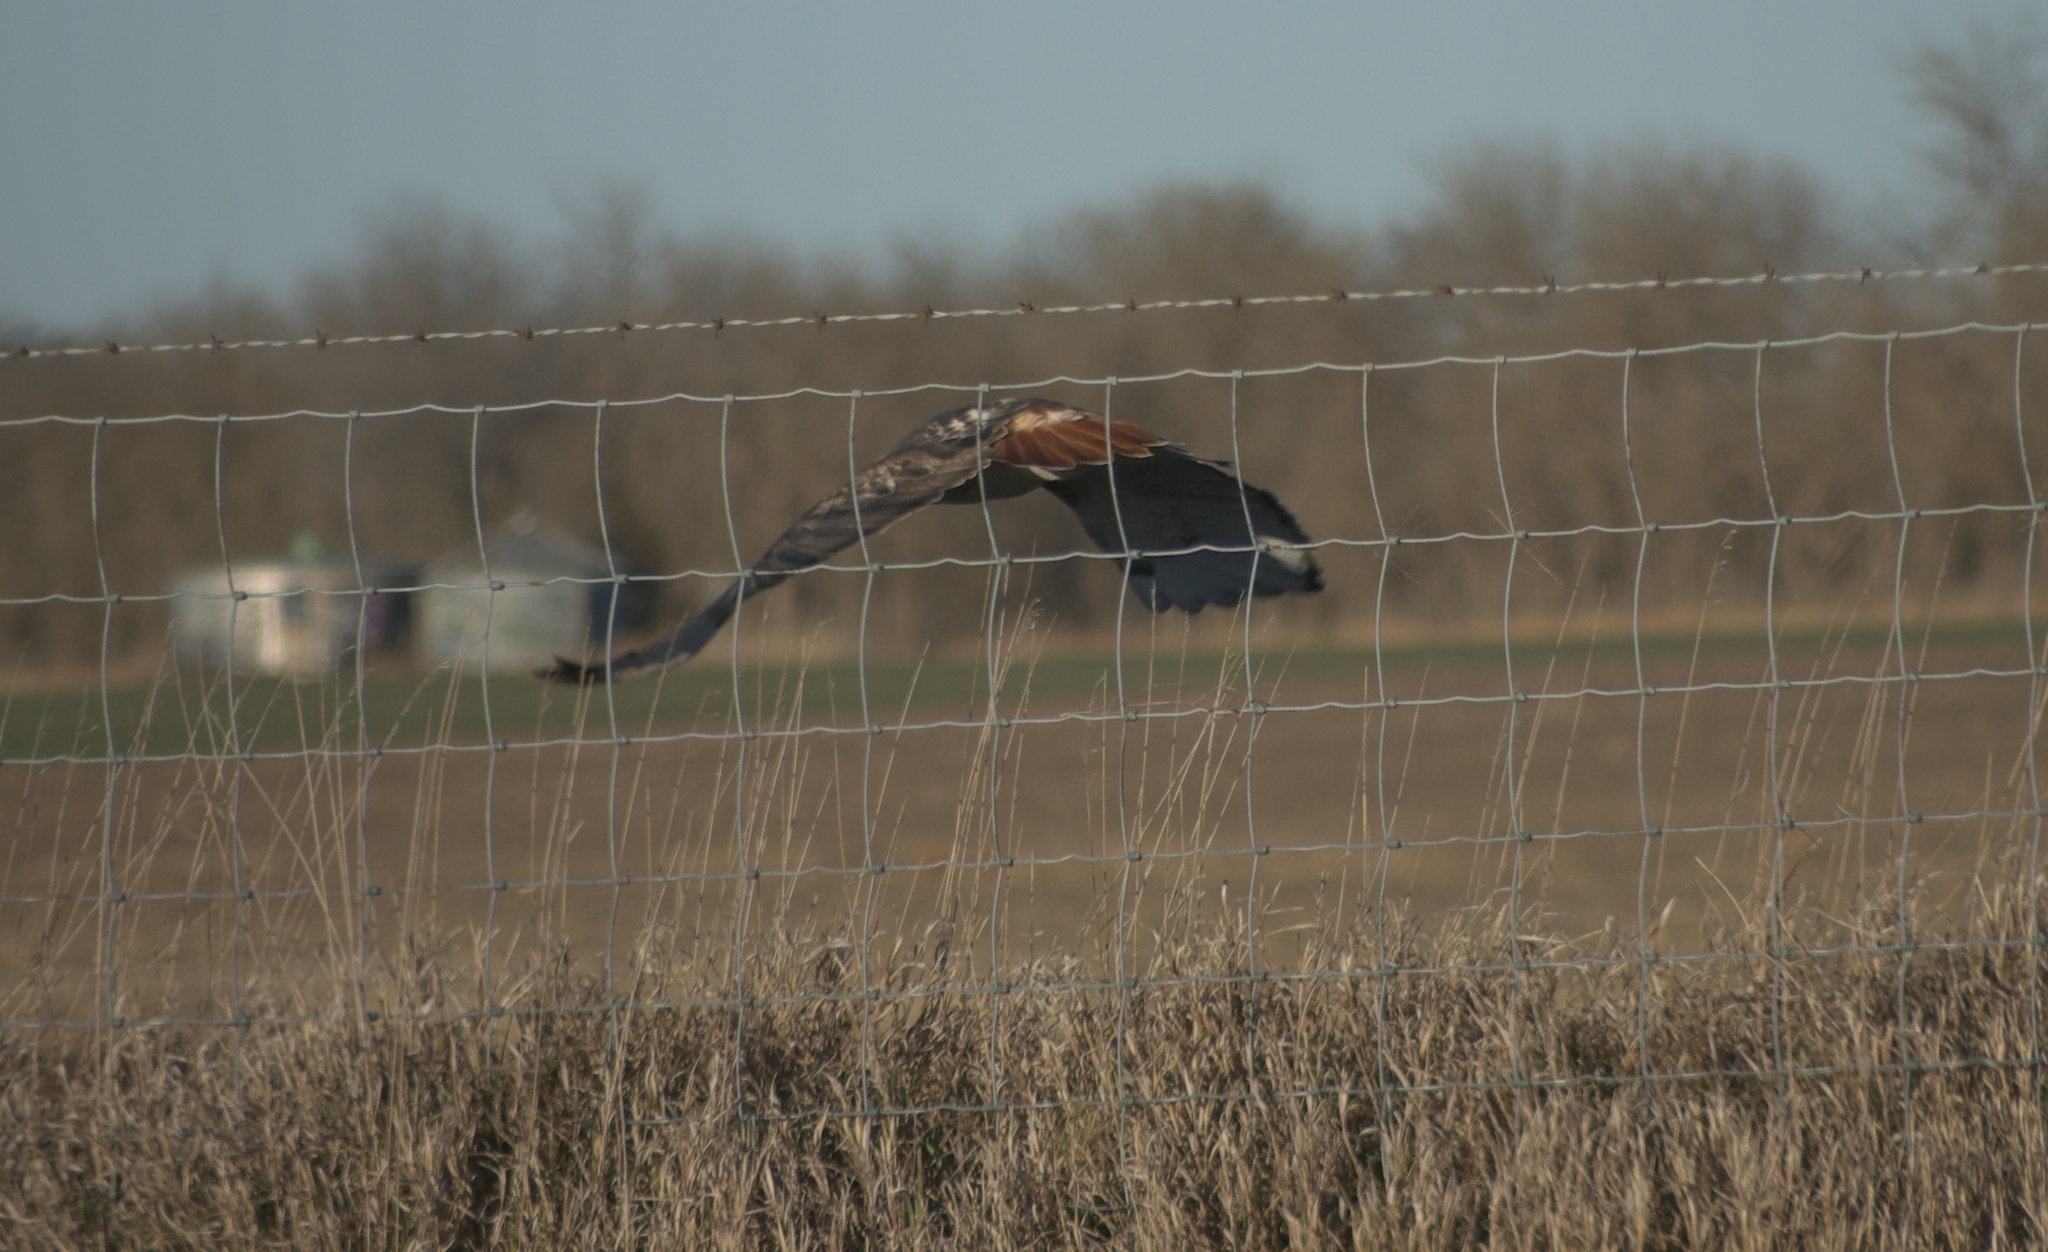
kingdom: Animalia
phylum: Chordata
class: Aves
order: Accipitriformes
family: Accipitridae
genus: Buteo
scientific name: Buteo jamaicensis
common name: Red-tailed hawk
